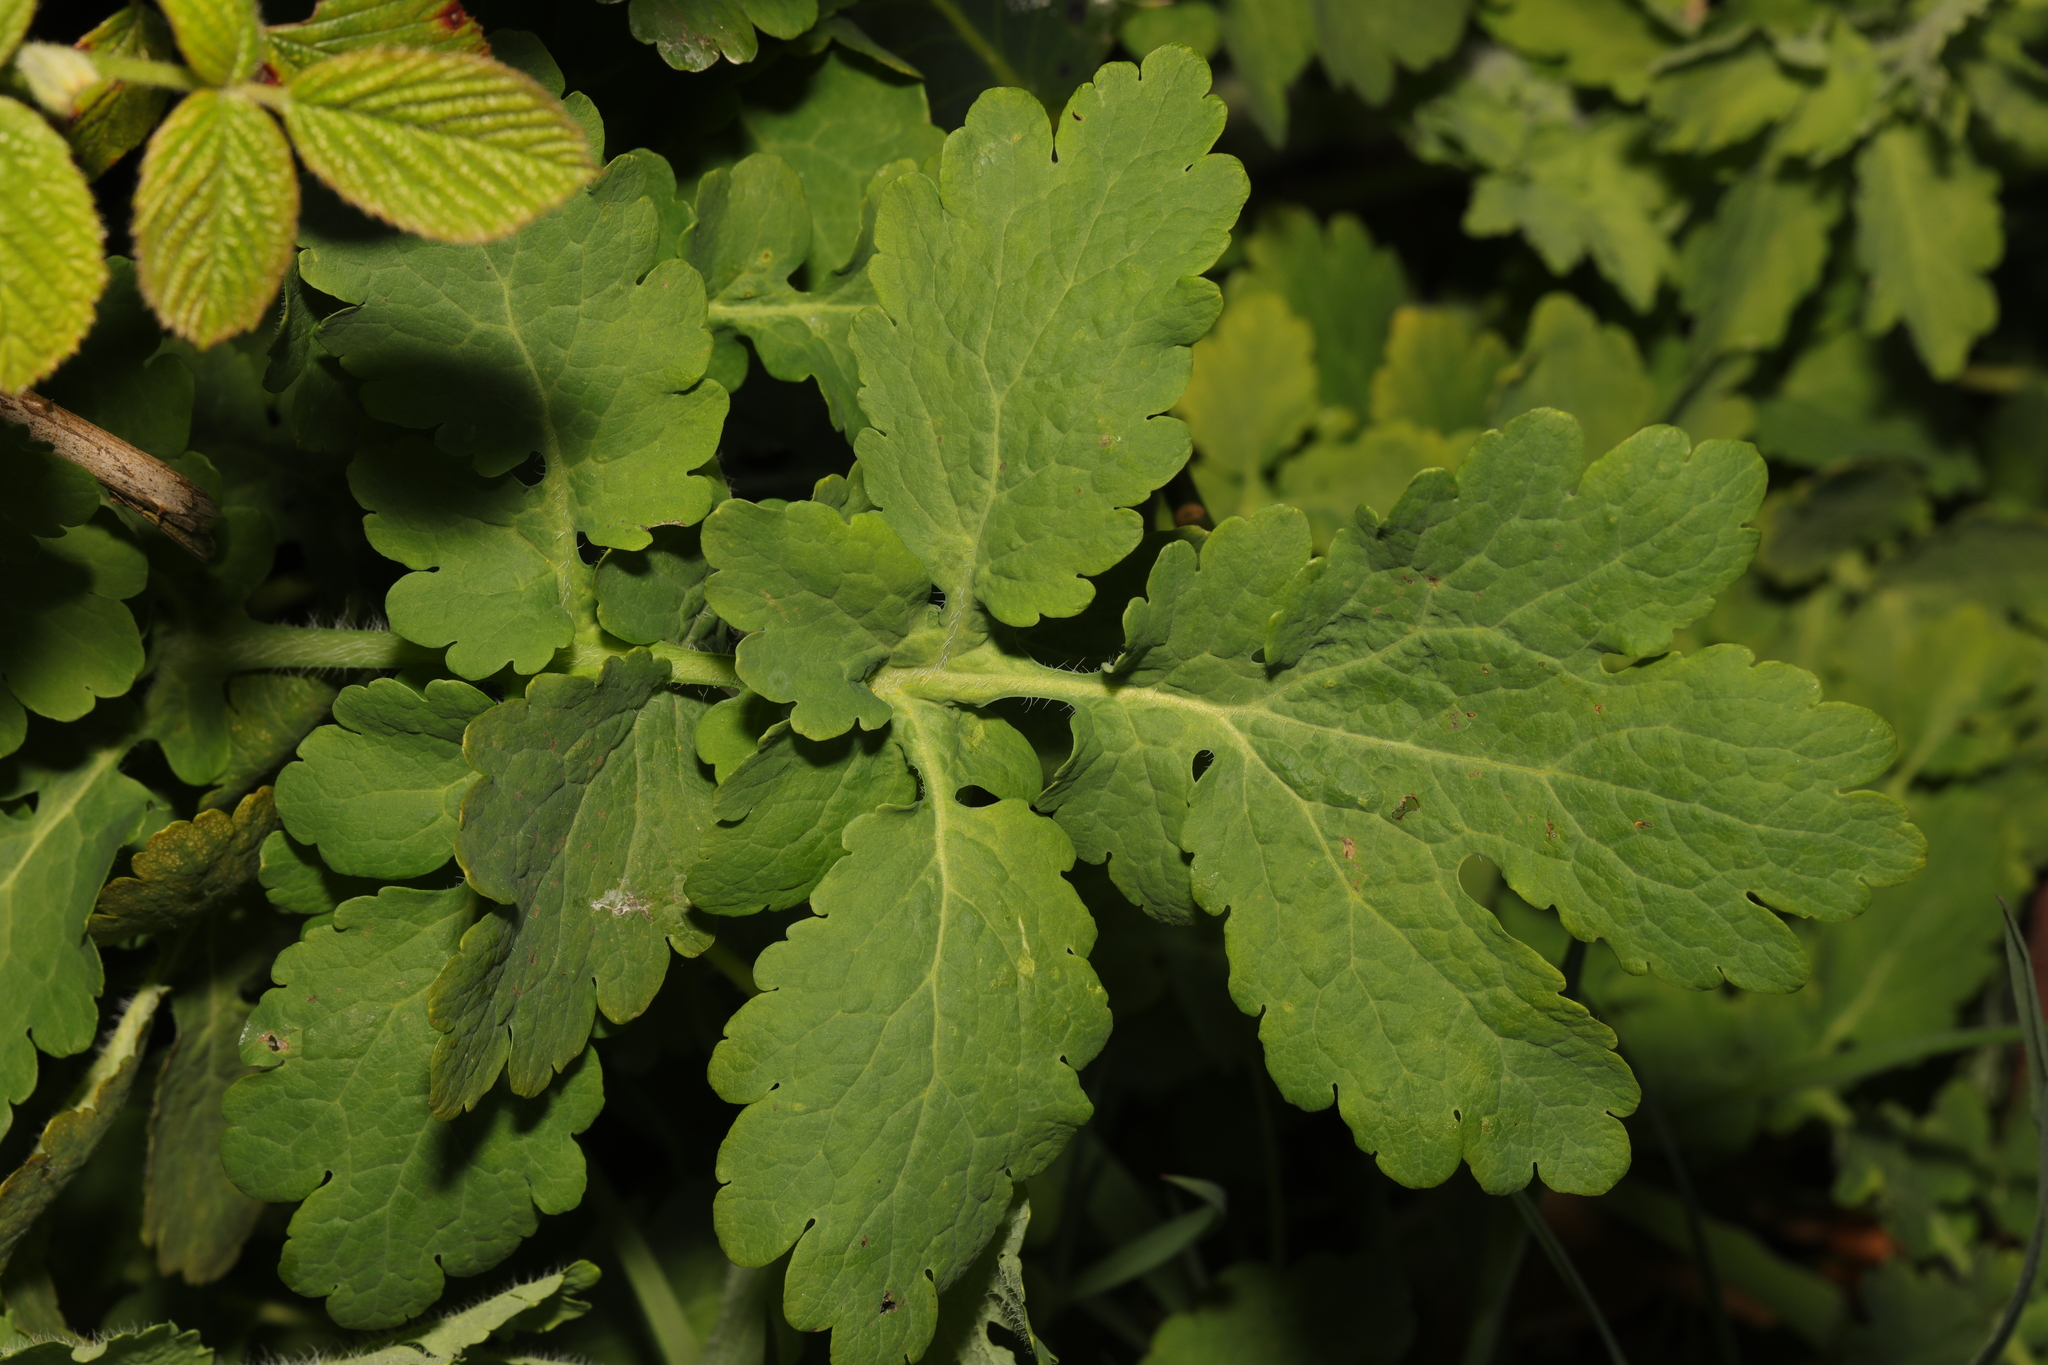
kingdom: Plantae
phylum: Tracheophyta
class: Magnoliopsida
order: Ranunculales
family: Papaveraceae
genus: Chelidonium
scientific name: Chelidonium majus
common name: Greater celandine
